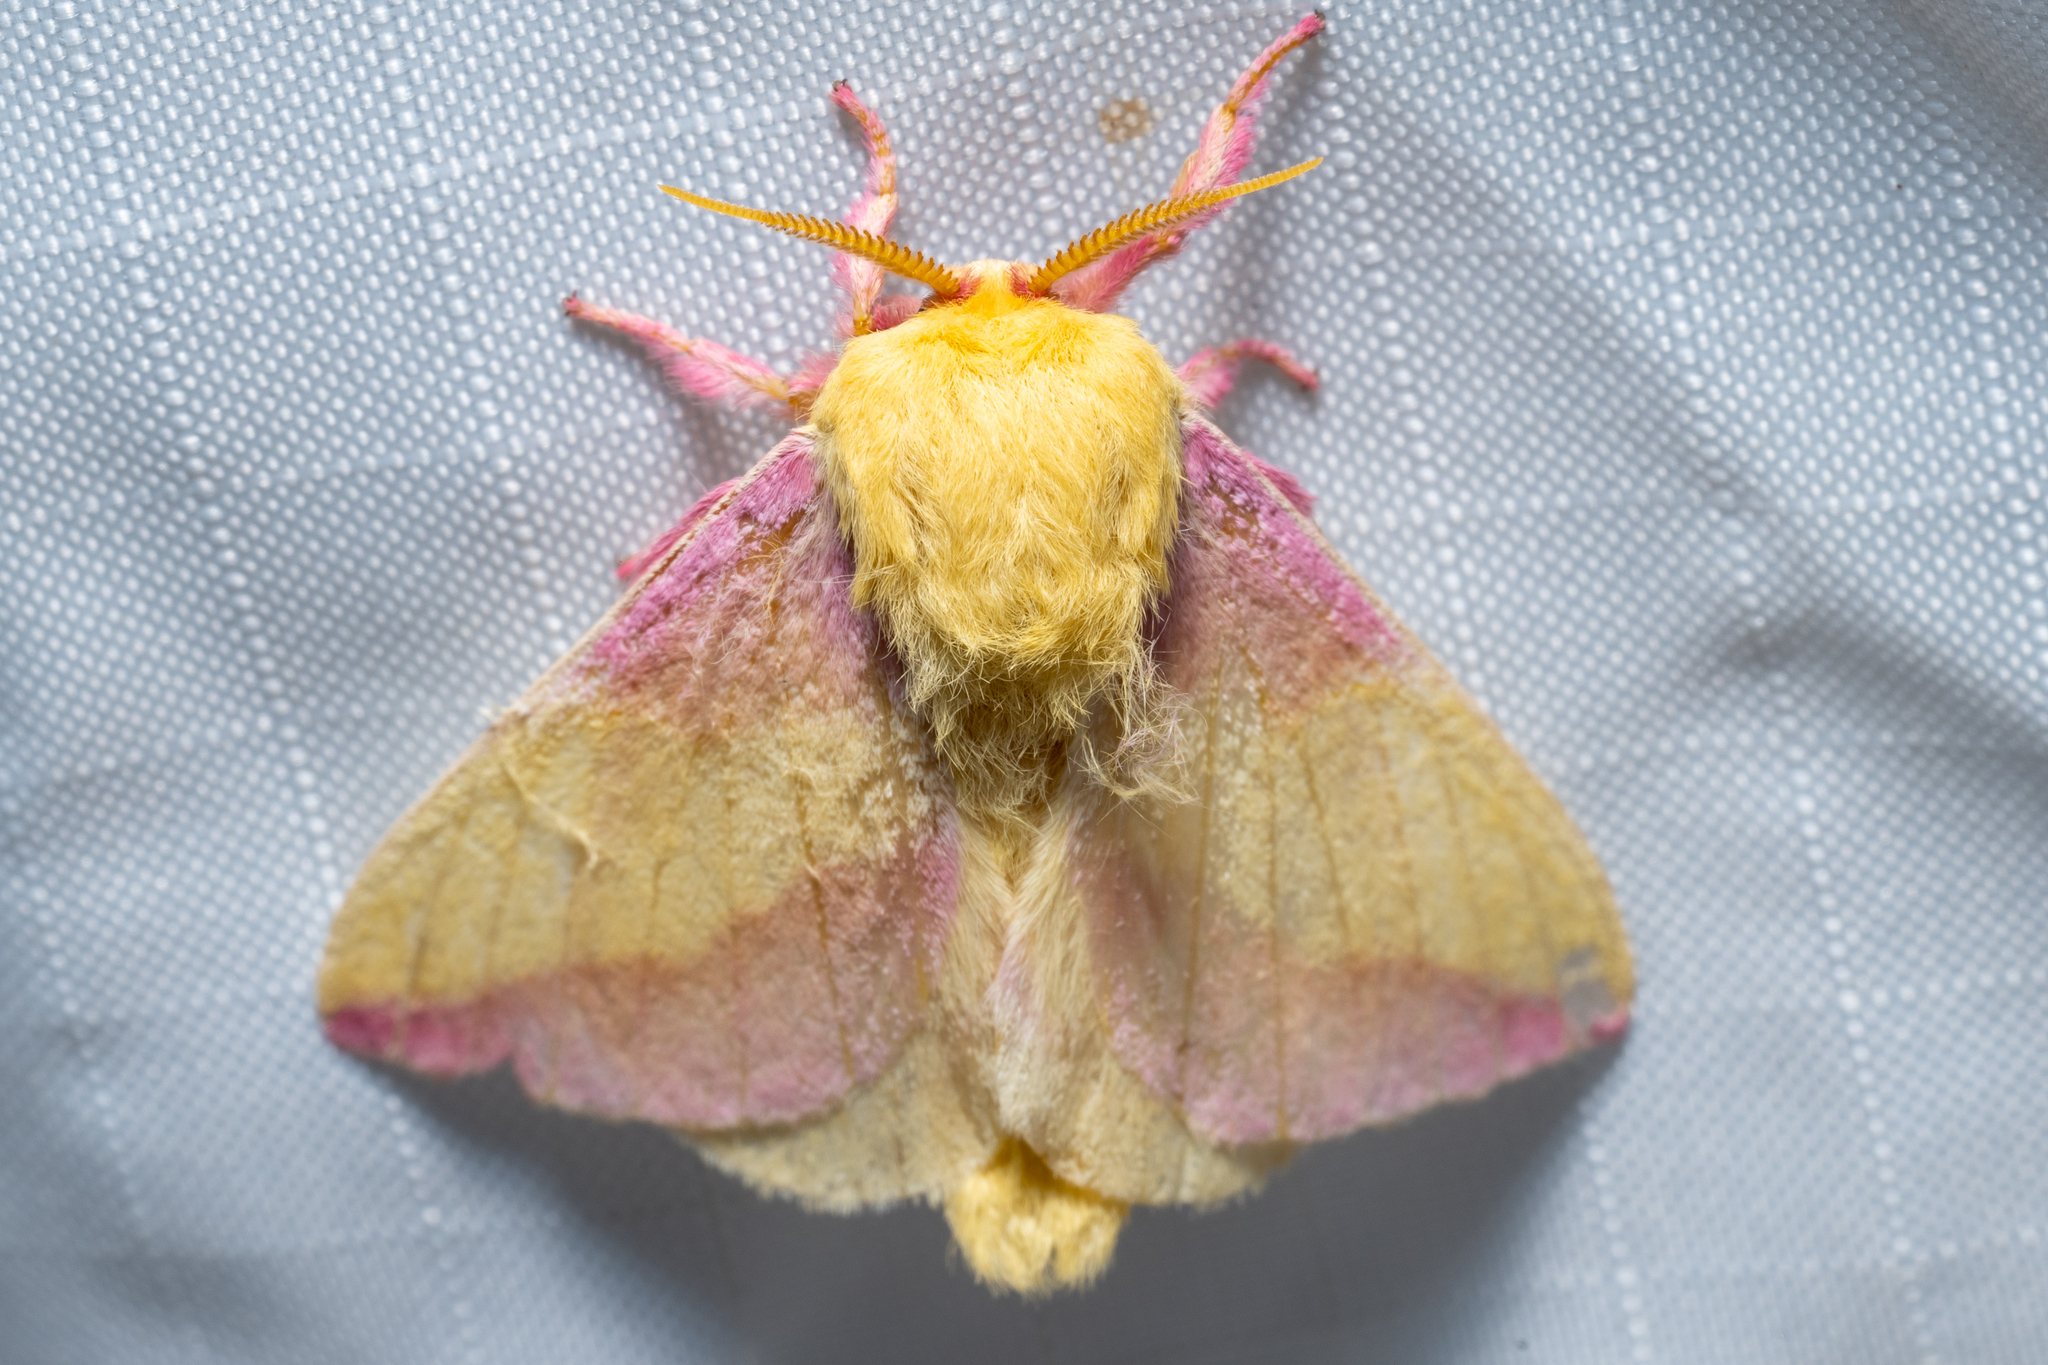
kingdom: Animalia
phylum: Arthropoda
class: Insecta
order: Lepidoptera
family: Saturniidae
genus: Dryocampa
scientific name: Dryocampa rubicunda
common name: Rosy maple moth
